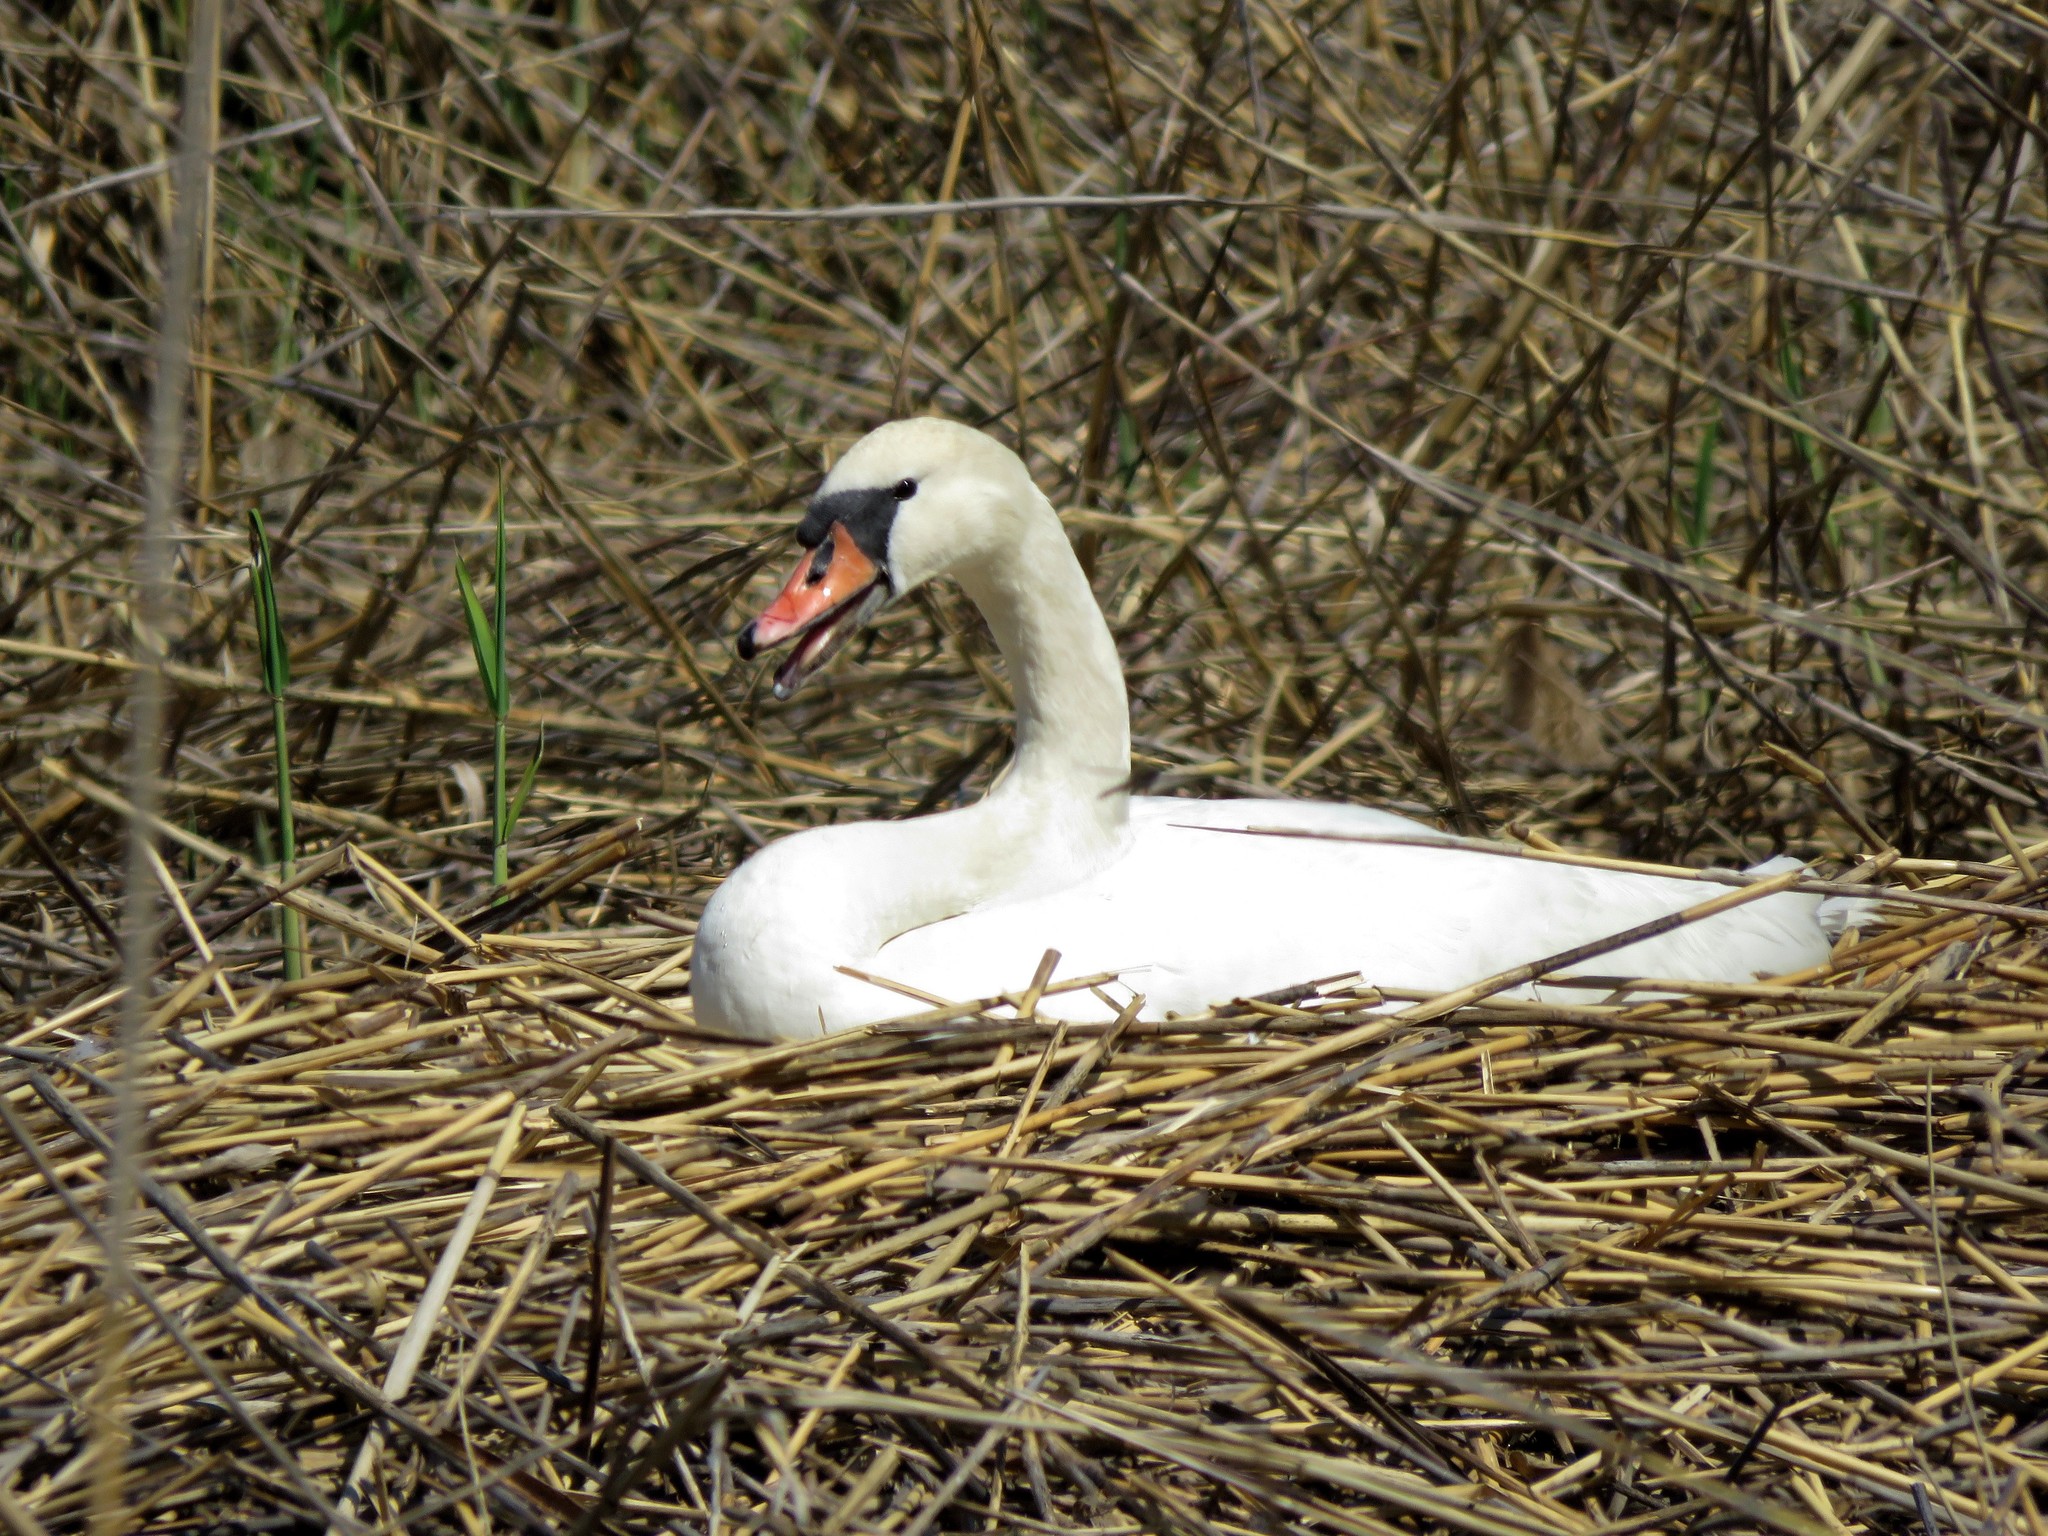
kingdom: Animalia
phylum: Chordata
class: Aves
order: Anseriformes
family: Anatidae
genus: Cygnus
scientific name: Cygnus olor
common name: Mute swan
